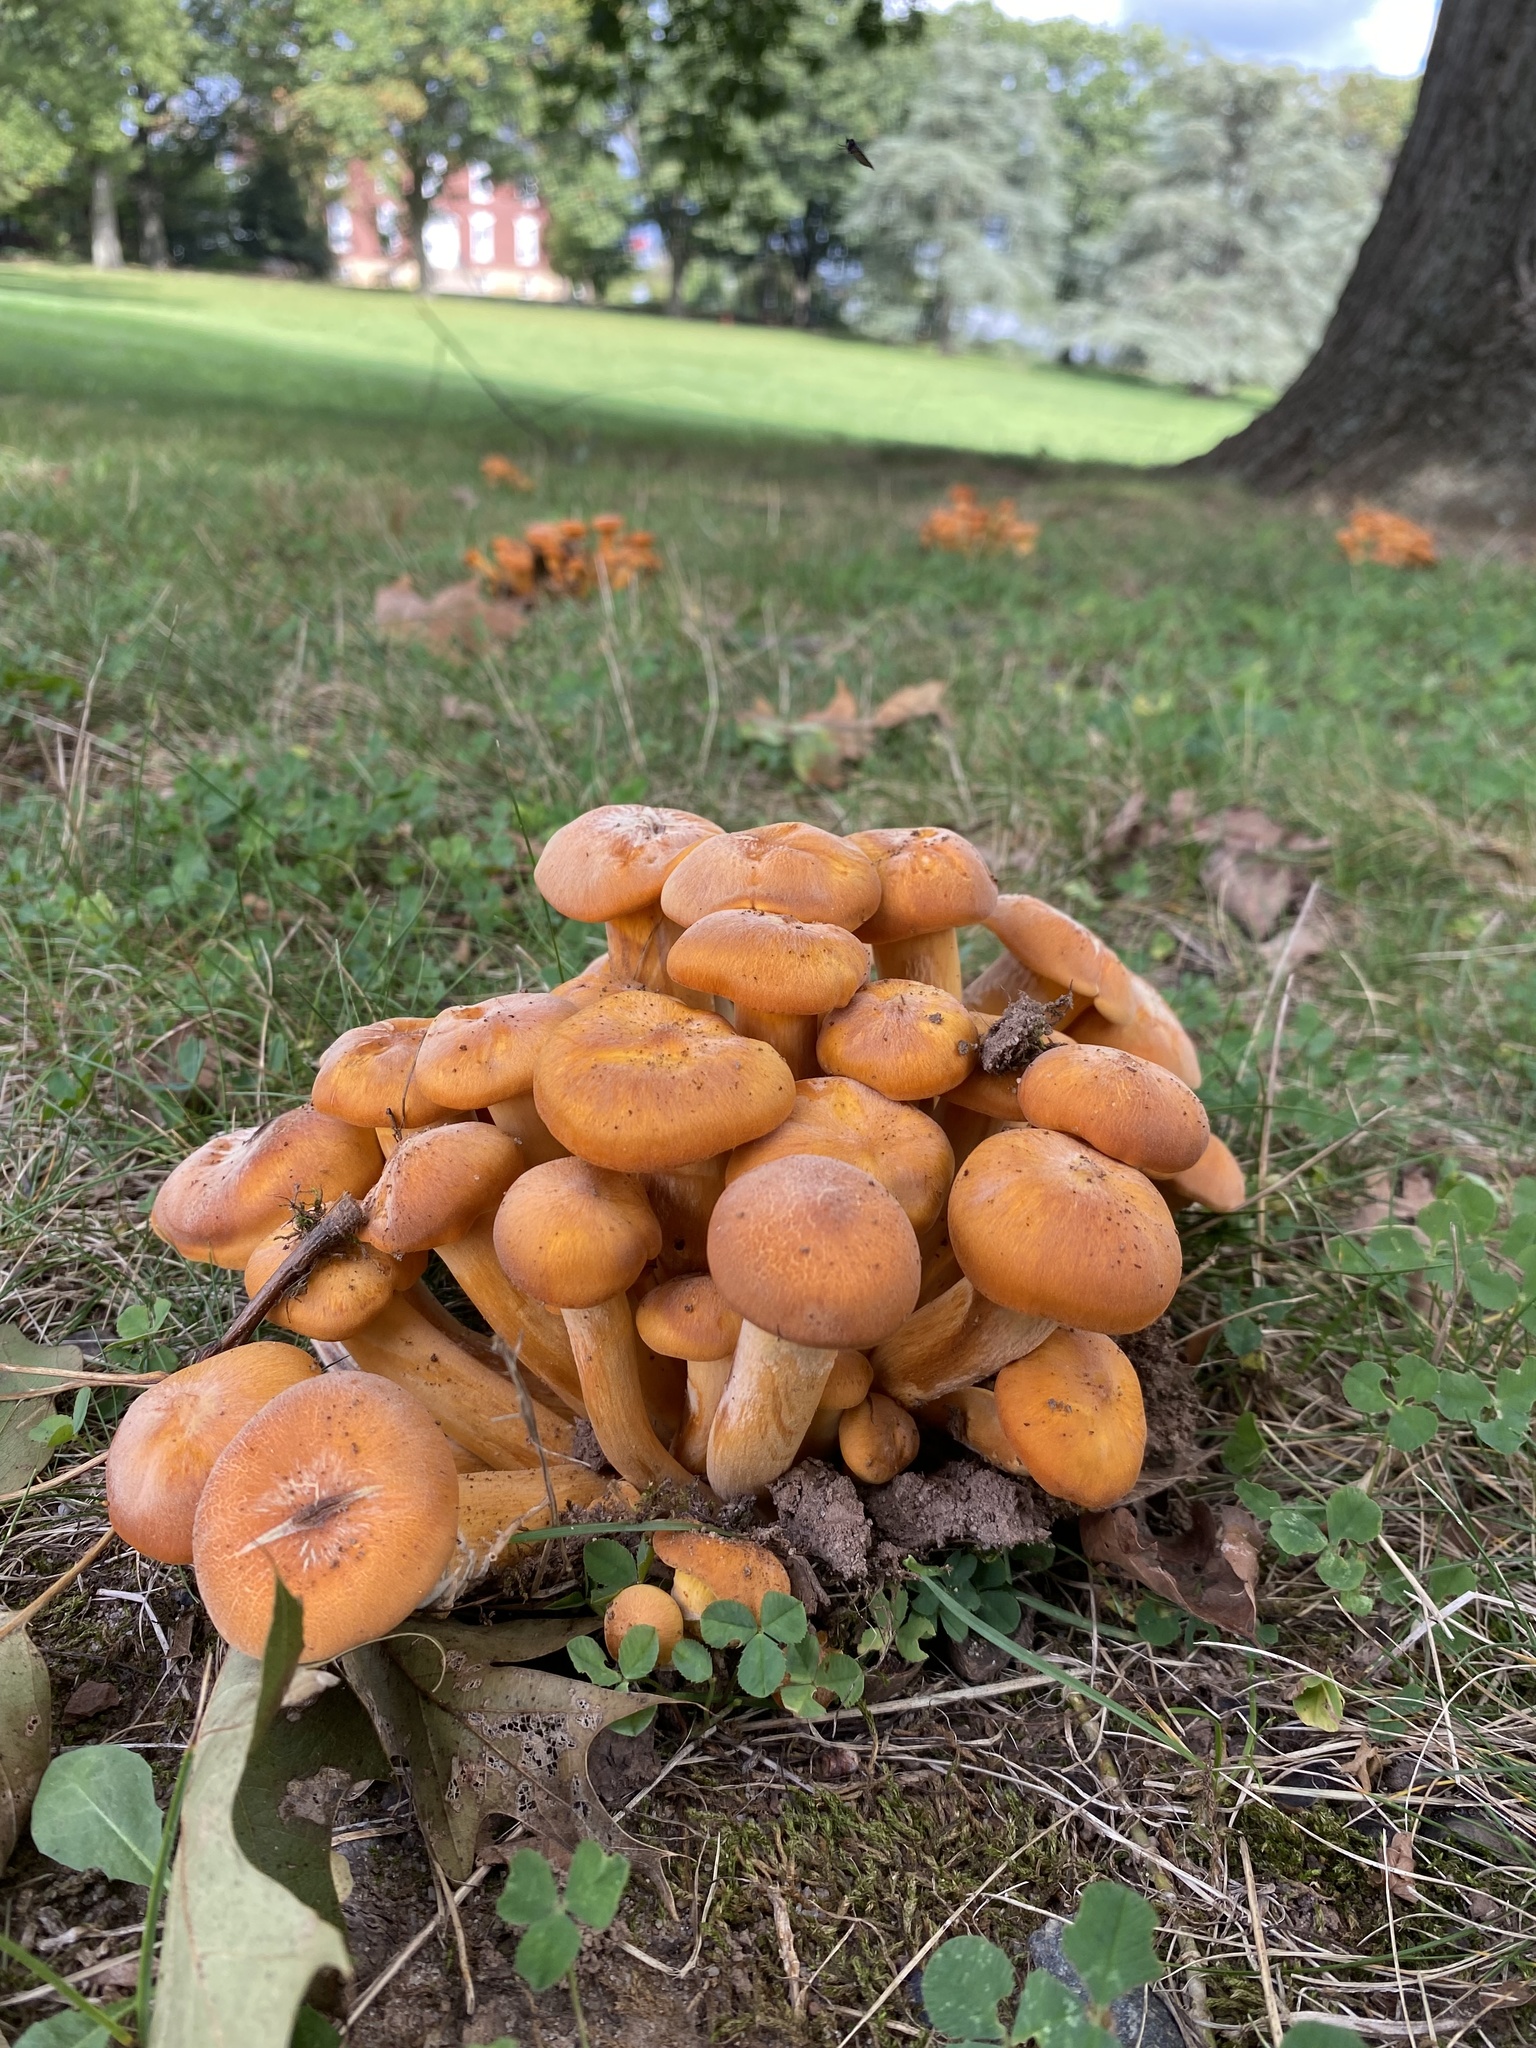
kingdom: Fungi
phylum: Basidiomycota
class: Agaricomycetes
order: Agaricales
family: Omphalotaceae
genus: Omphalotus
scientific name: Omphalotus illudens
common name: Jack o lantern
